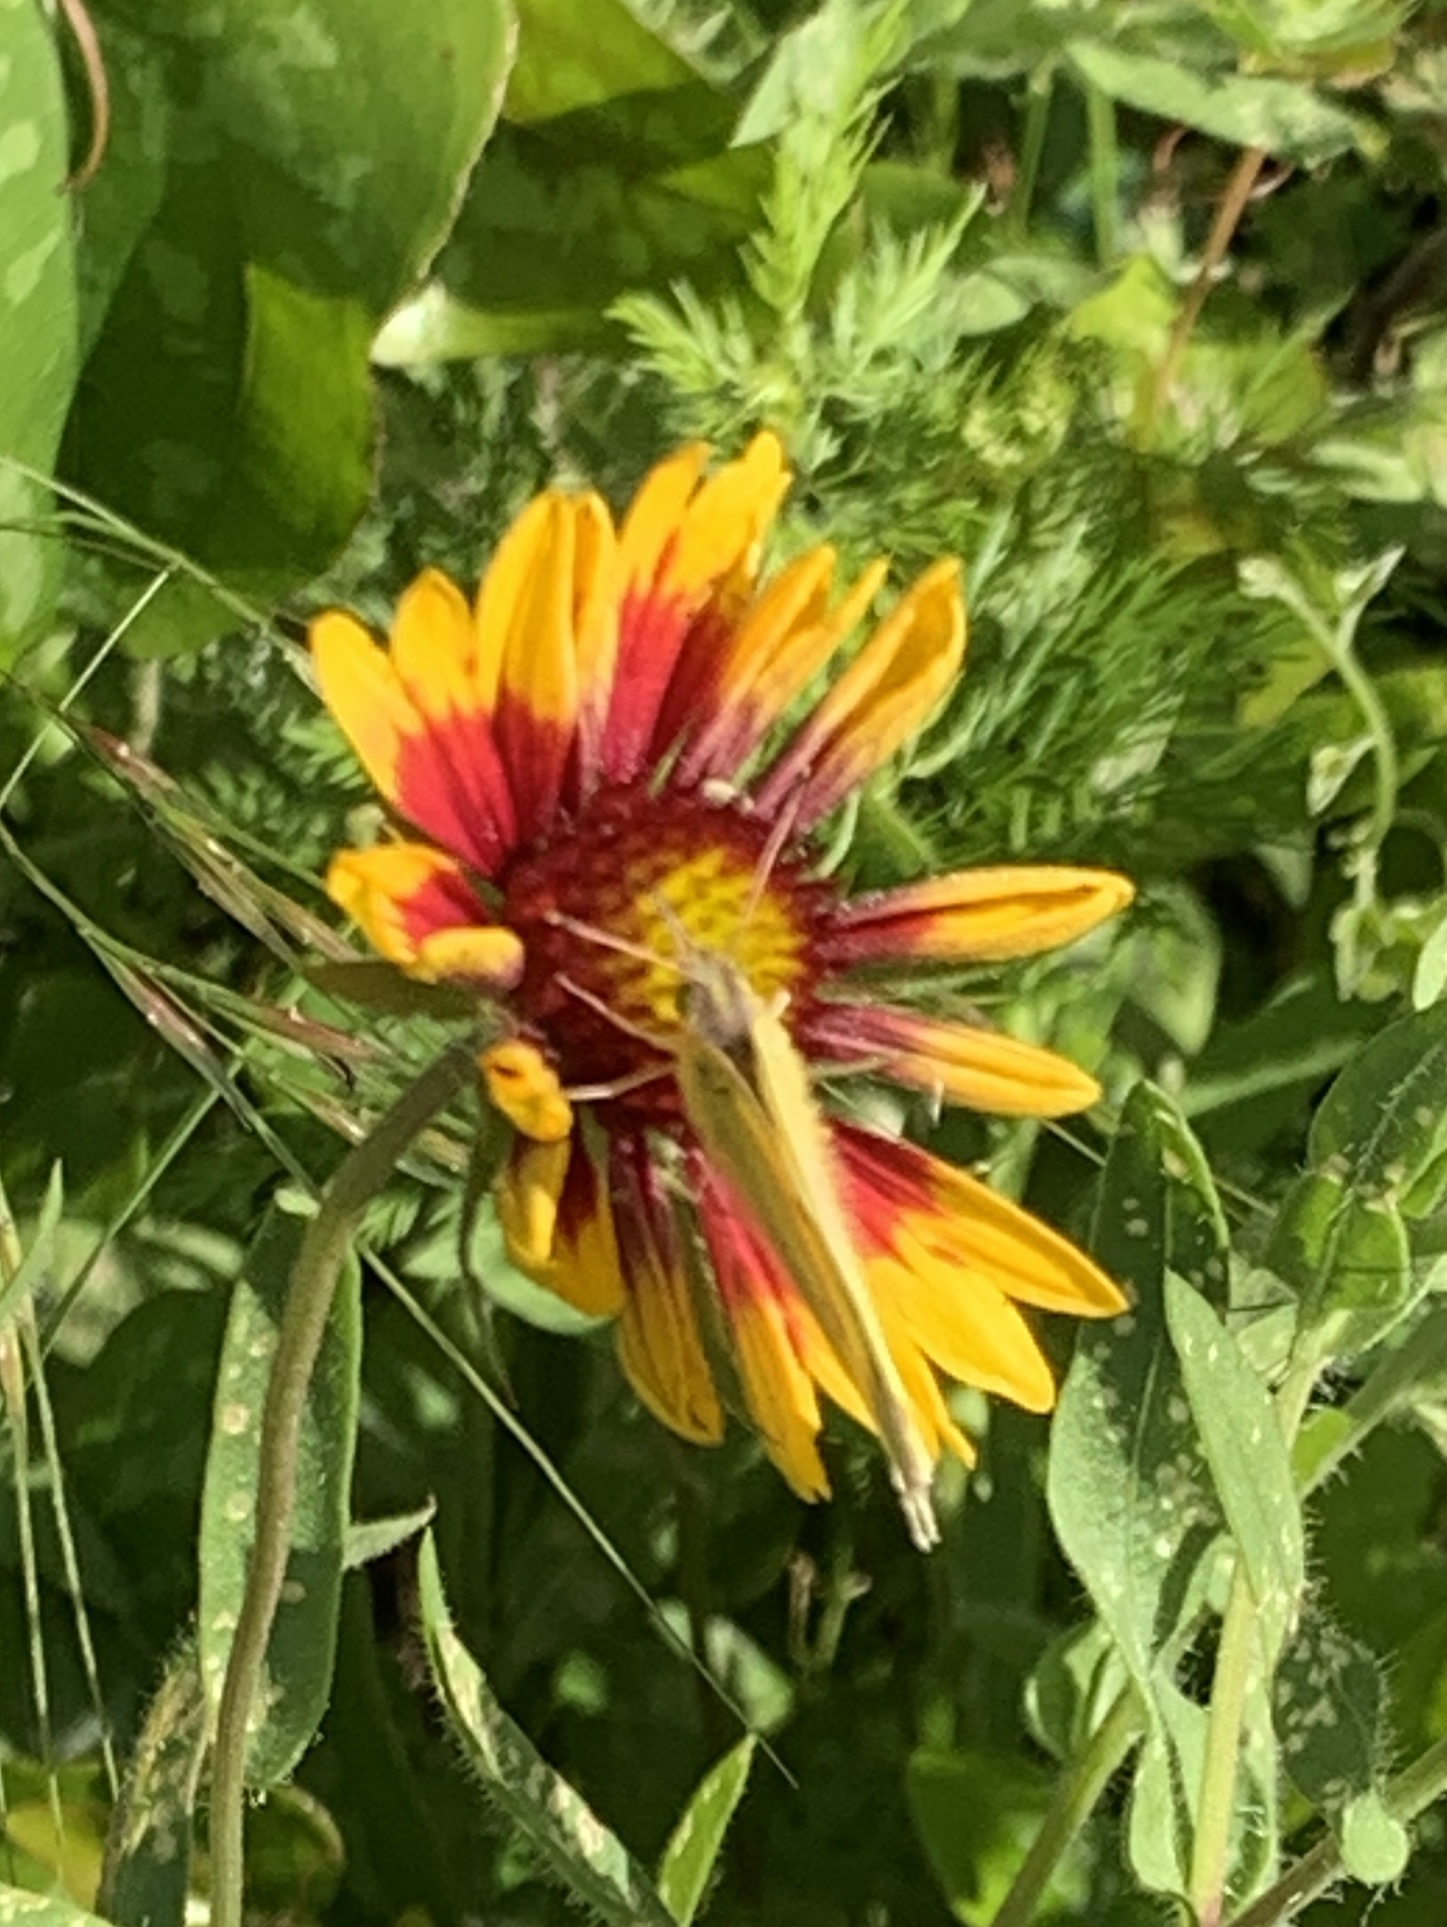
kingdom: Animalia
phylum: Arthropoda
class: Insecta
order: Lepidoptera
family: Pieridae
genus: Colias
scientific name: Colias eurytheme
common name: Alfalfa butterfly
